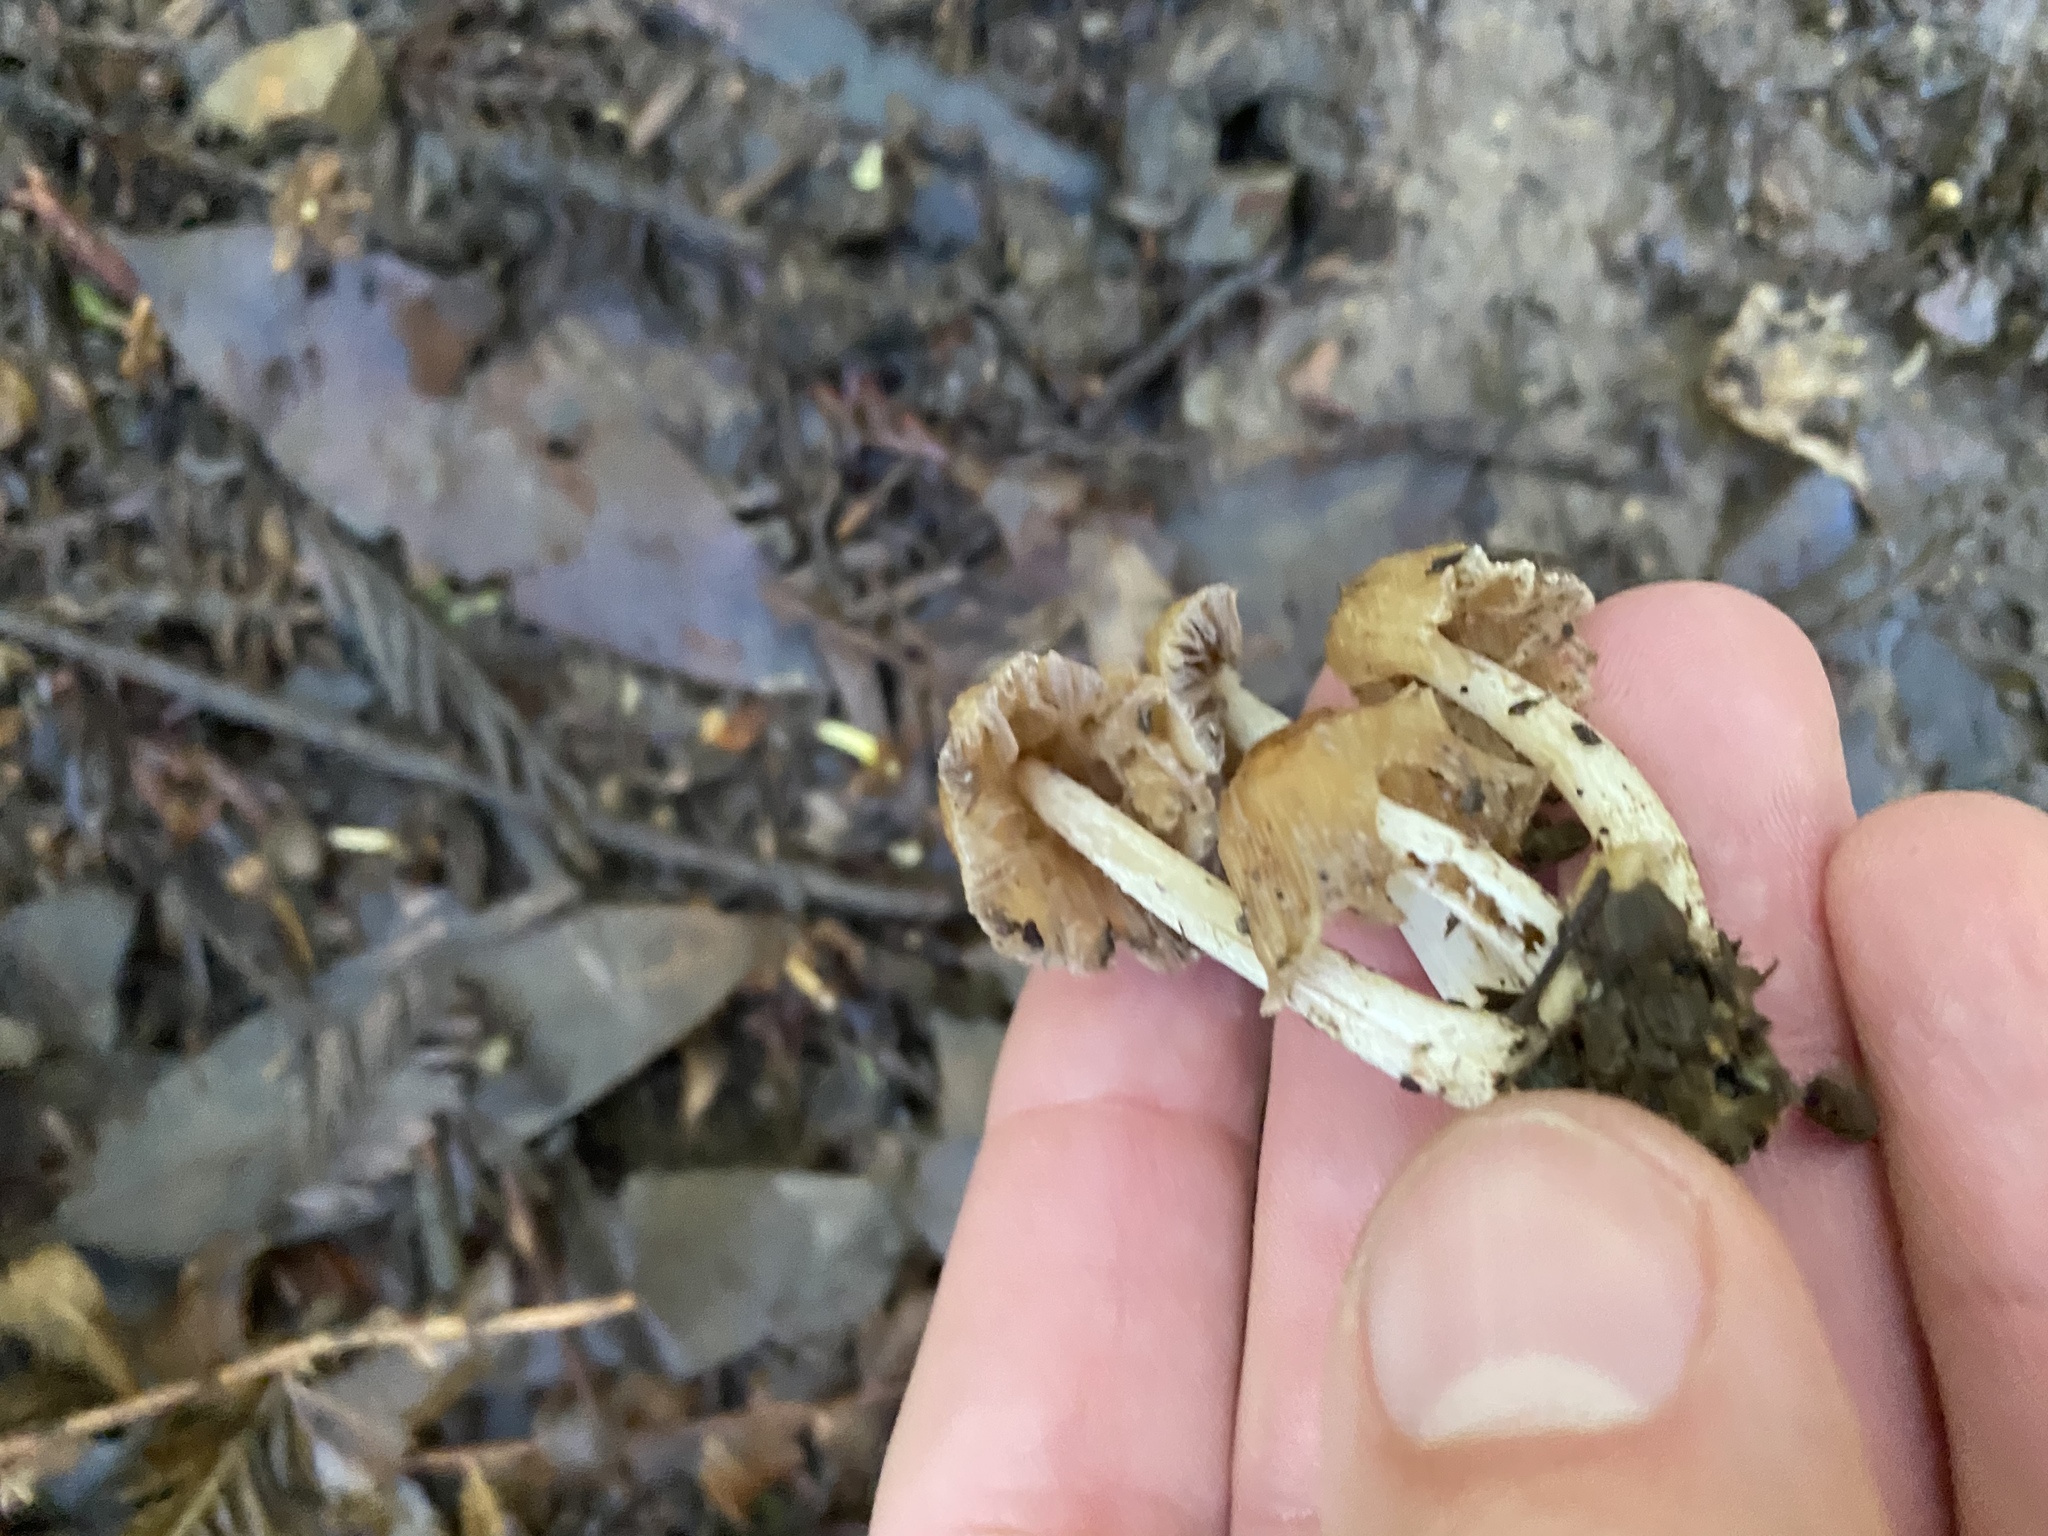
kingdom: Fungi
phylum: Basidiomycota
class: Agaricomycetes
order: Agaricales
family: Psathyrellaceae
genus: Coprinellus
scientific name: Coprinellus micaceus
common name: Glistening ink-cap
